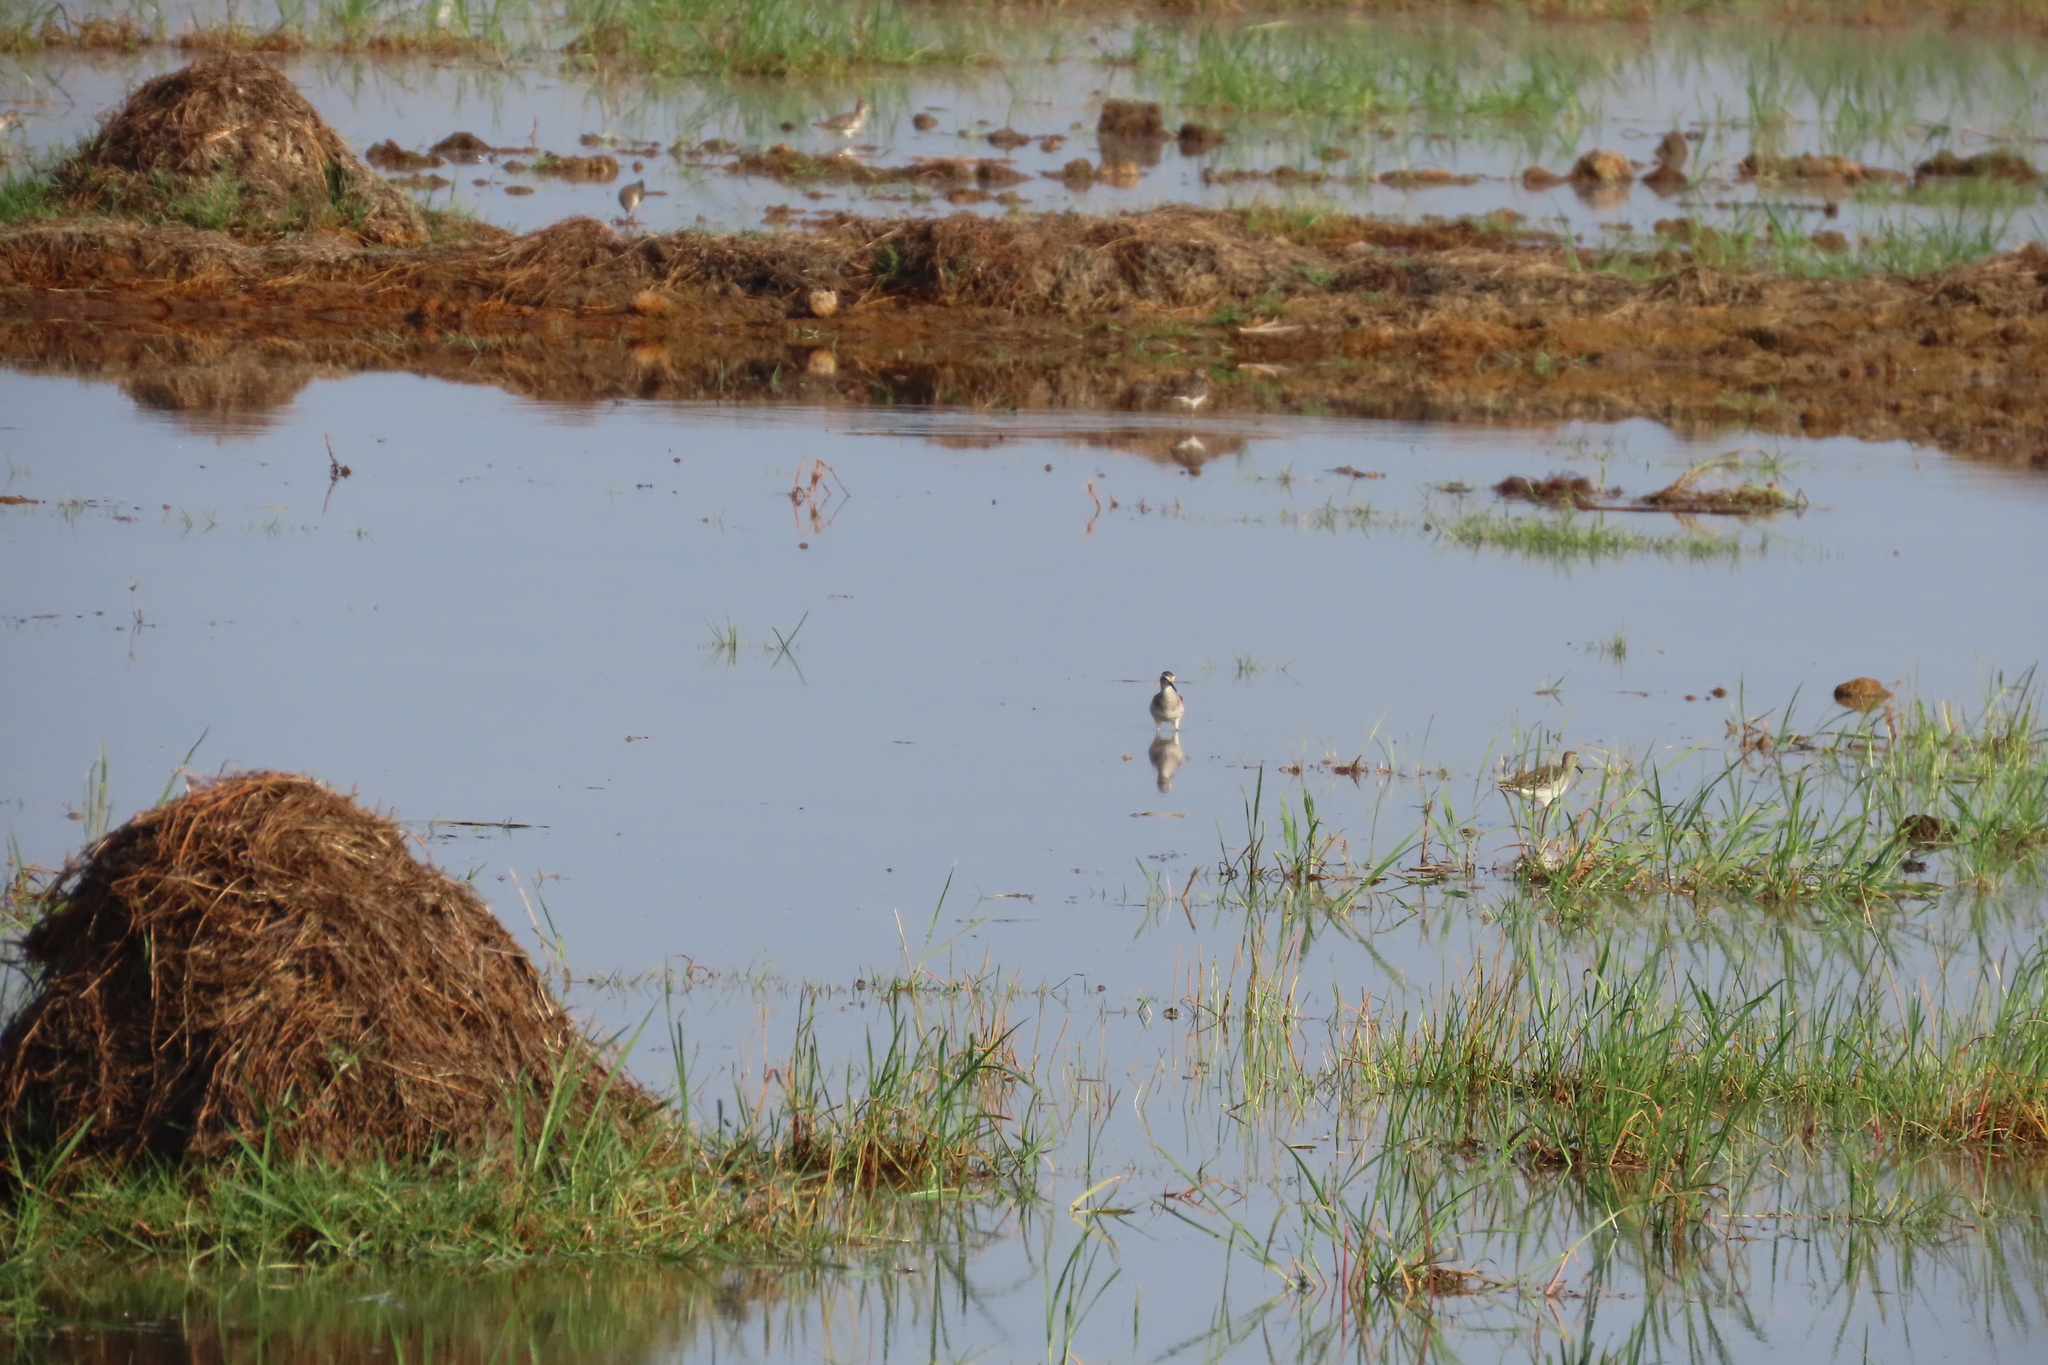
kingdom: Animalia
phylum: Chordata
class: Aves
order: Charadriiformes
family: Scolopacidae
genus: Tringa
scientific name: Tringa glareola
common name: Wood sandpiper
